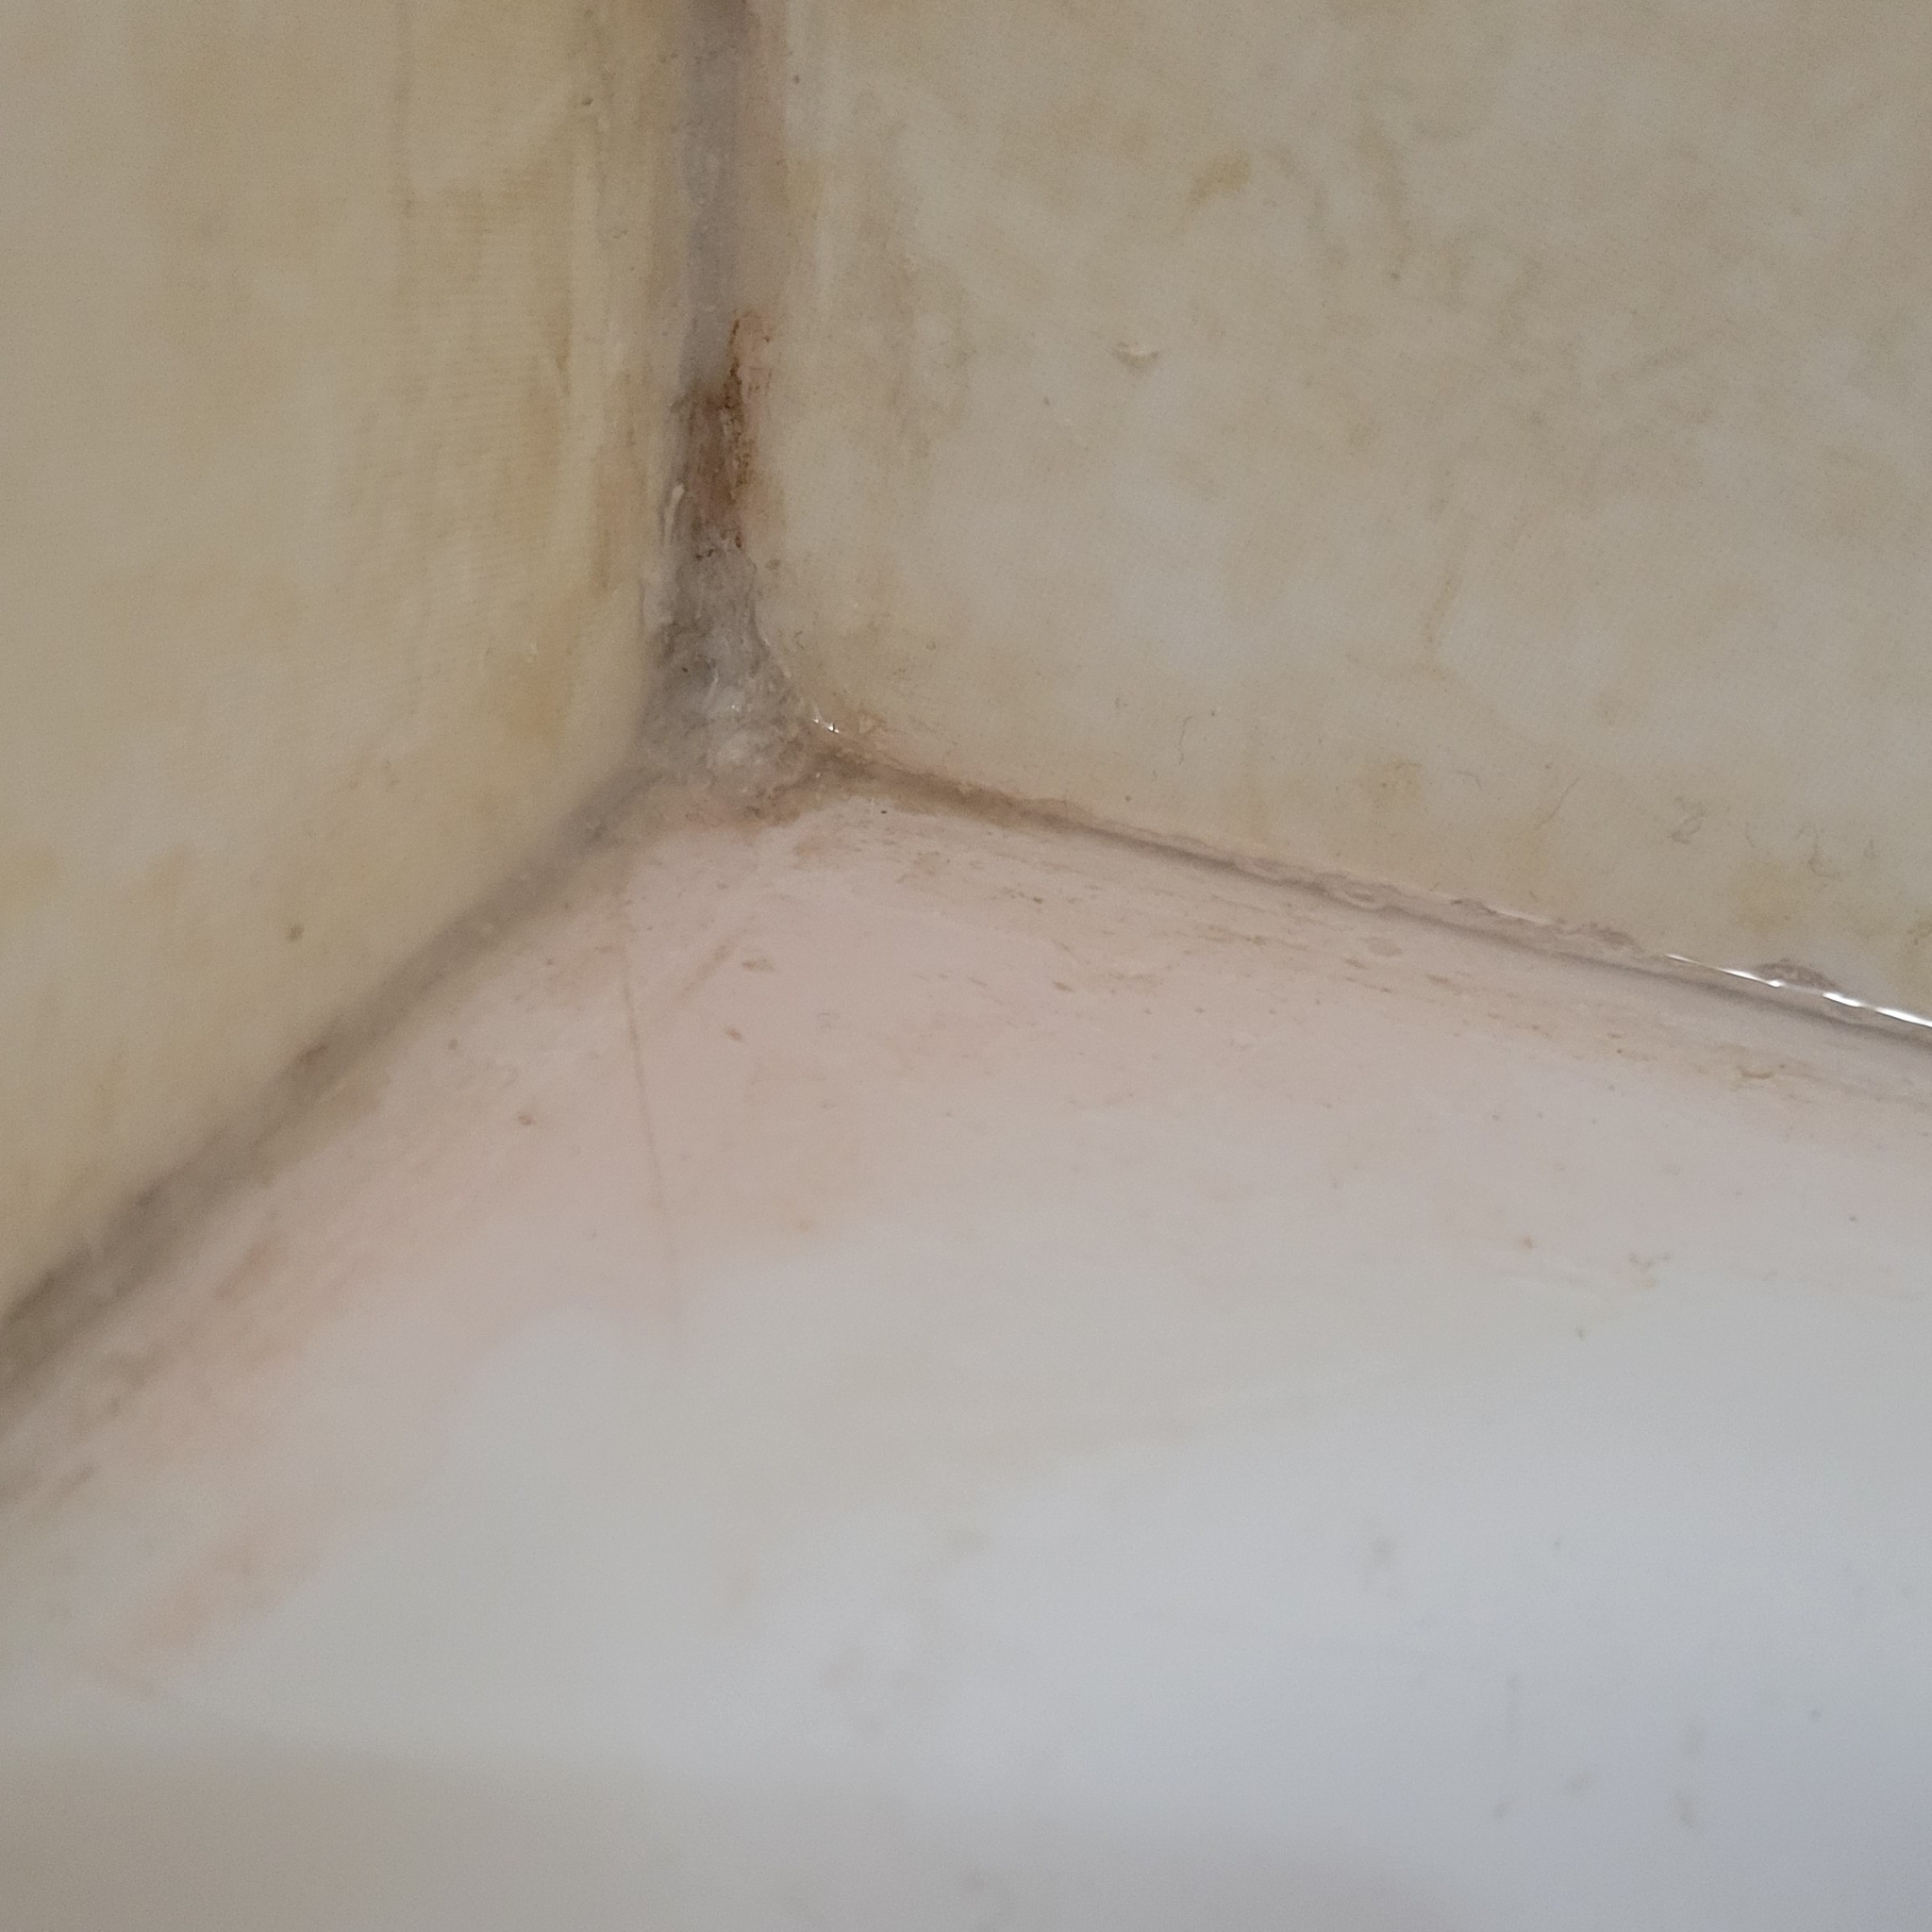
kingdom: Bacteria
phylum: Proteobacteria
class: Gammaproteobacteria
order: Enterobacterales
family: Enterobacteriaceae
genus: Serratia
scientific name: Serratia marcescens
